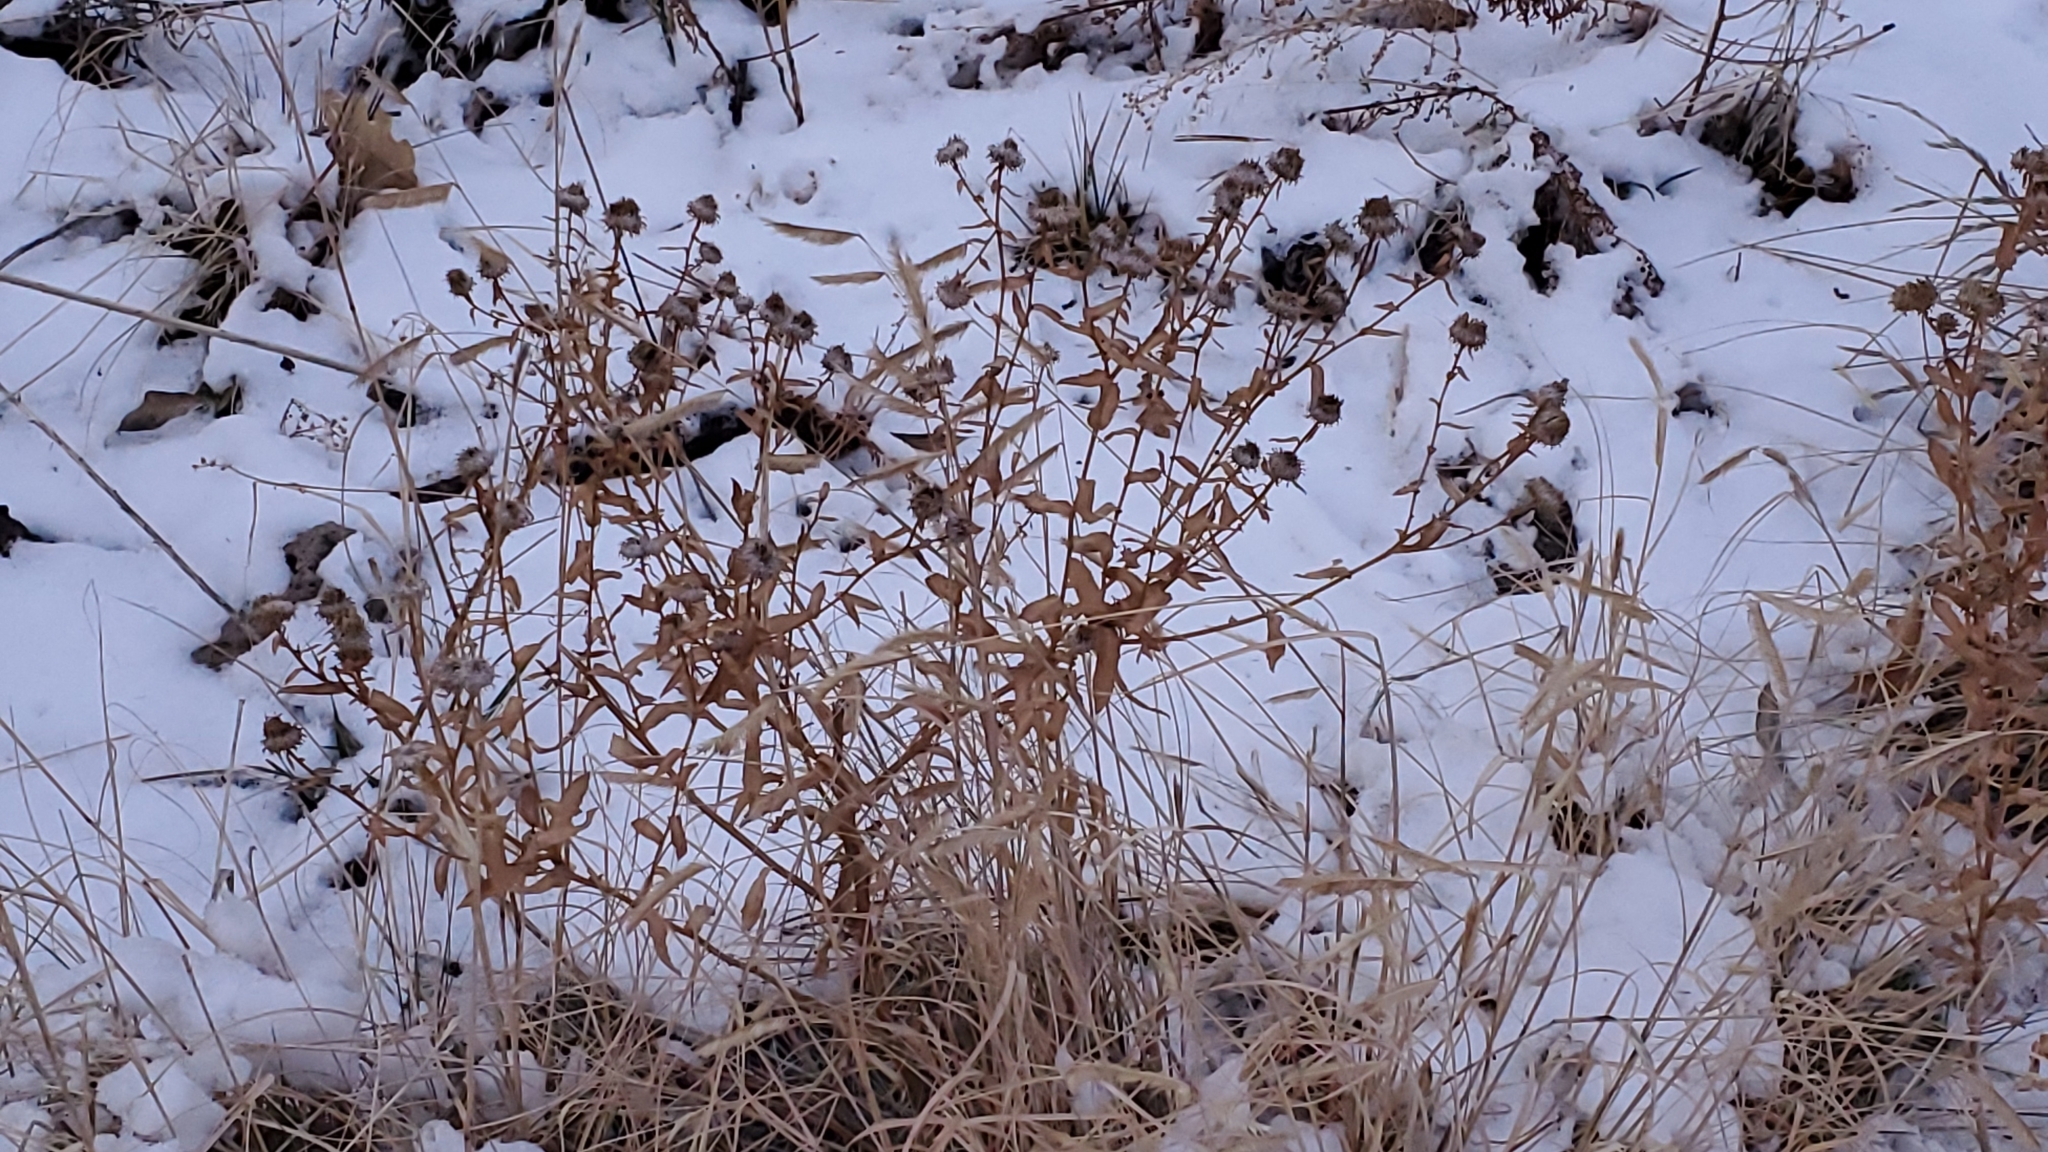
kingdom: Plantae
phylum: Tracheophyta
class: Magnoliopsida
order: Asterales
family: Asteraceae
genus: Grindelia
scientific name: Grindelia squarrosa
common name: Curly-cup gumweed
